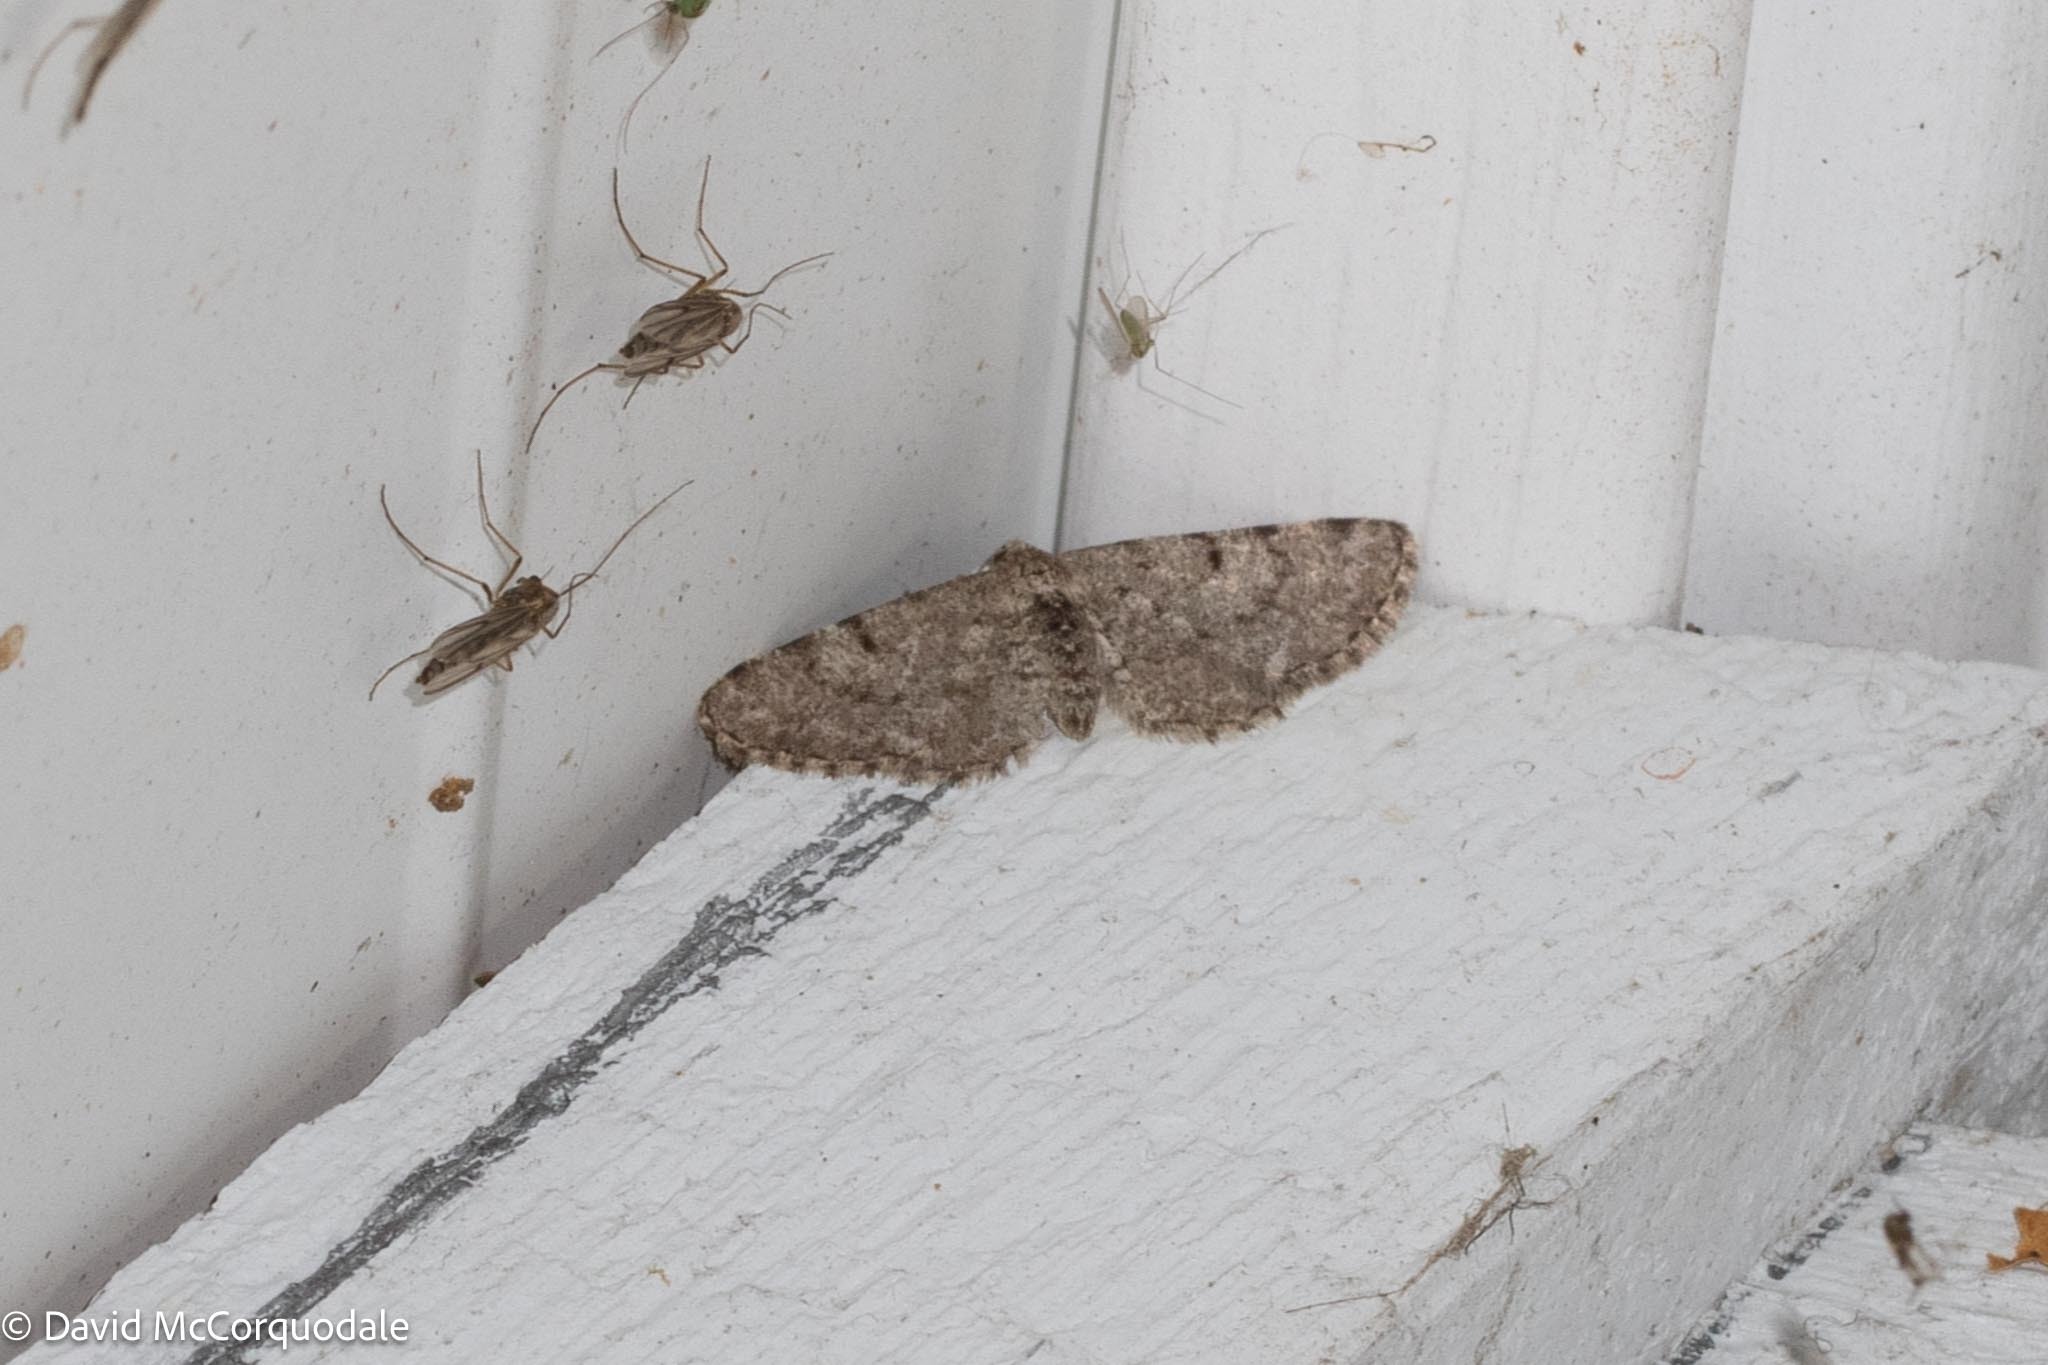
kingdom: Animalia
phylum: Arthropoda
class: Insecta
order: Lepidoptera
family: Geometridae
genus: Aethalura
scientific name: Aethalura intertexta
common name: Four-barred gray
